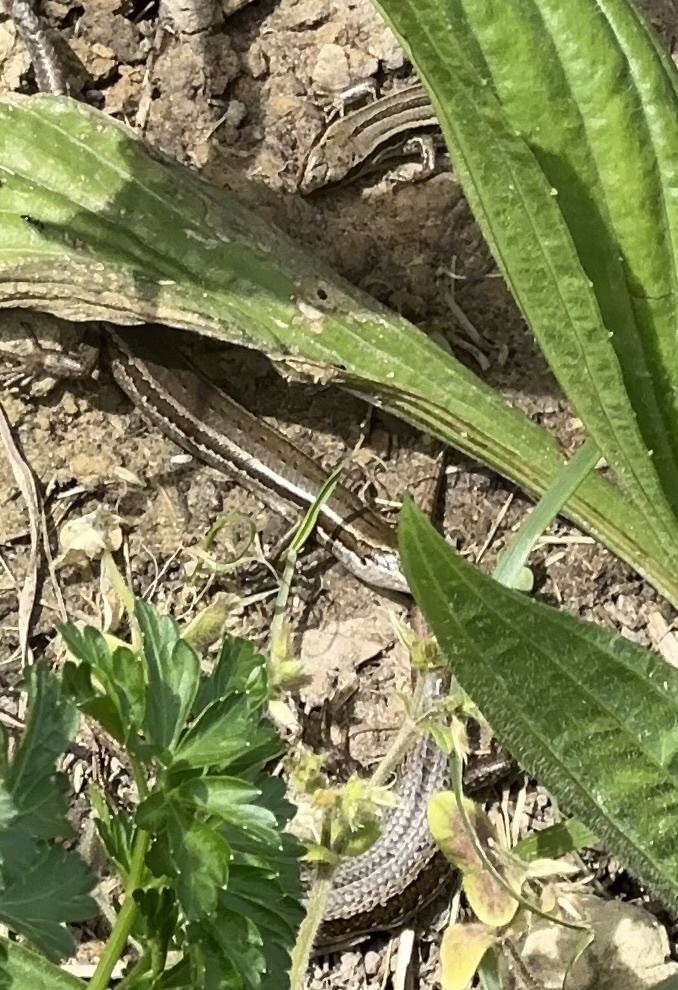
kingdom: Animalia
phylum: Chordata
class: Squamata
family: Scincidae
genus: Oligosoma
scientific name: Oligosoma polychroma
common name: Common new zealand skink
